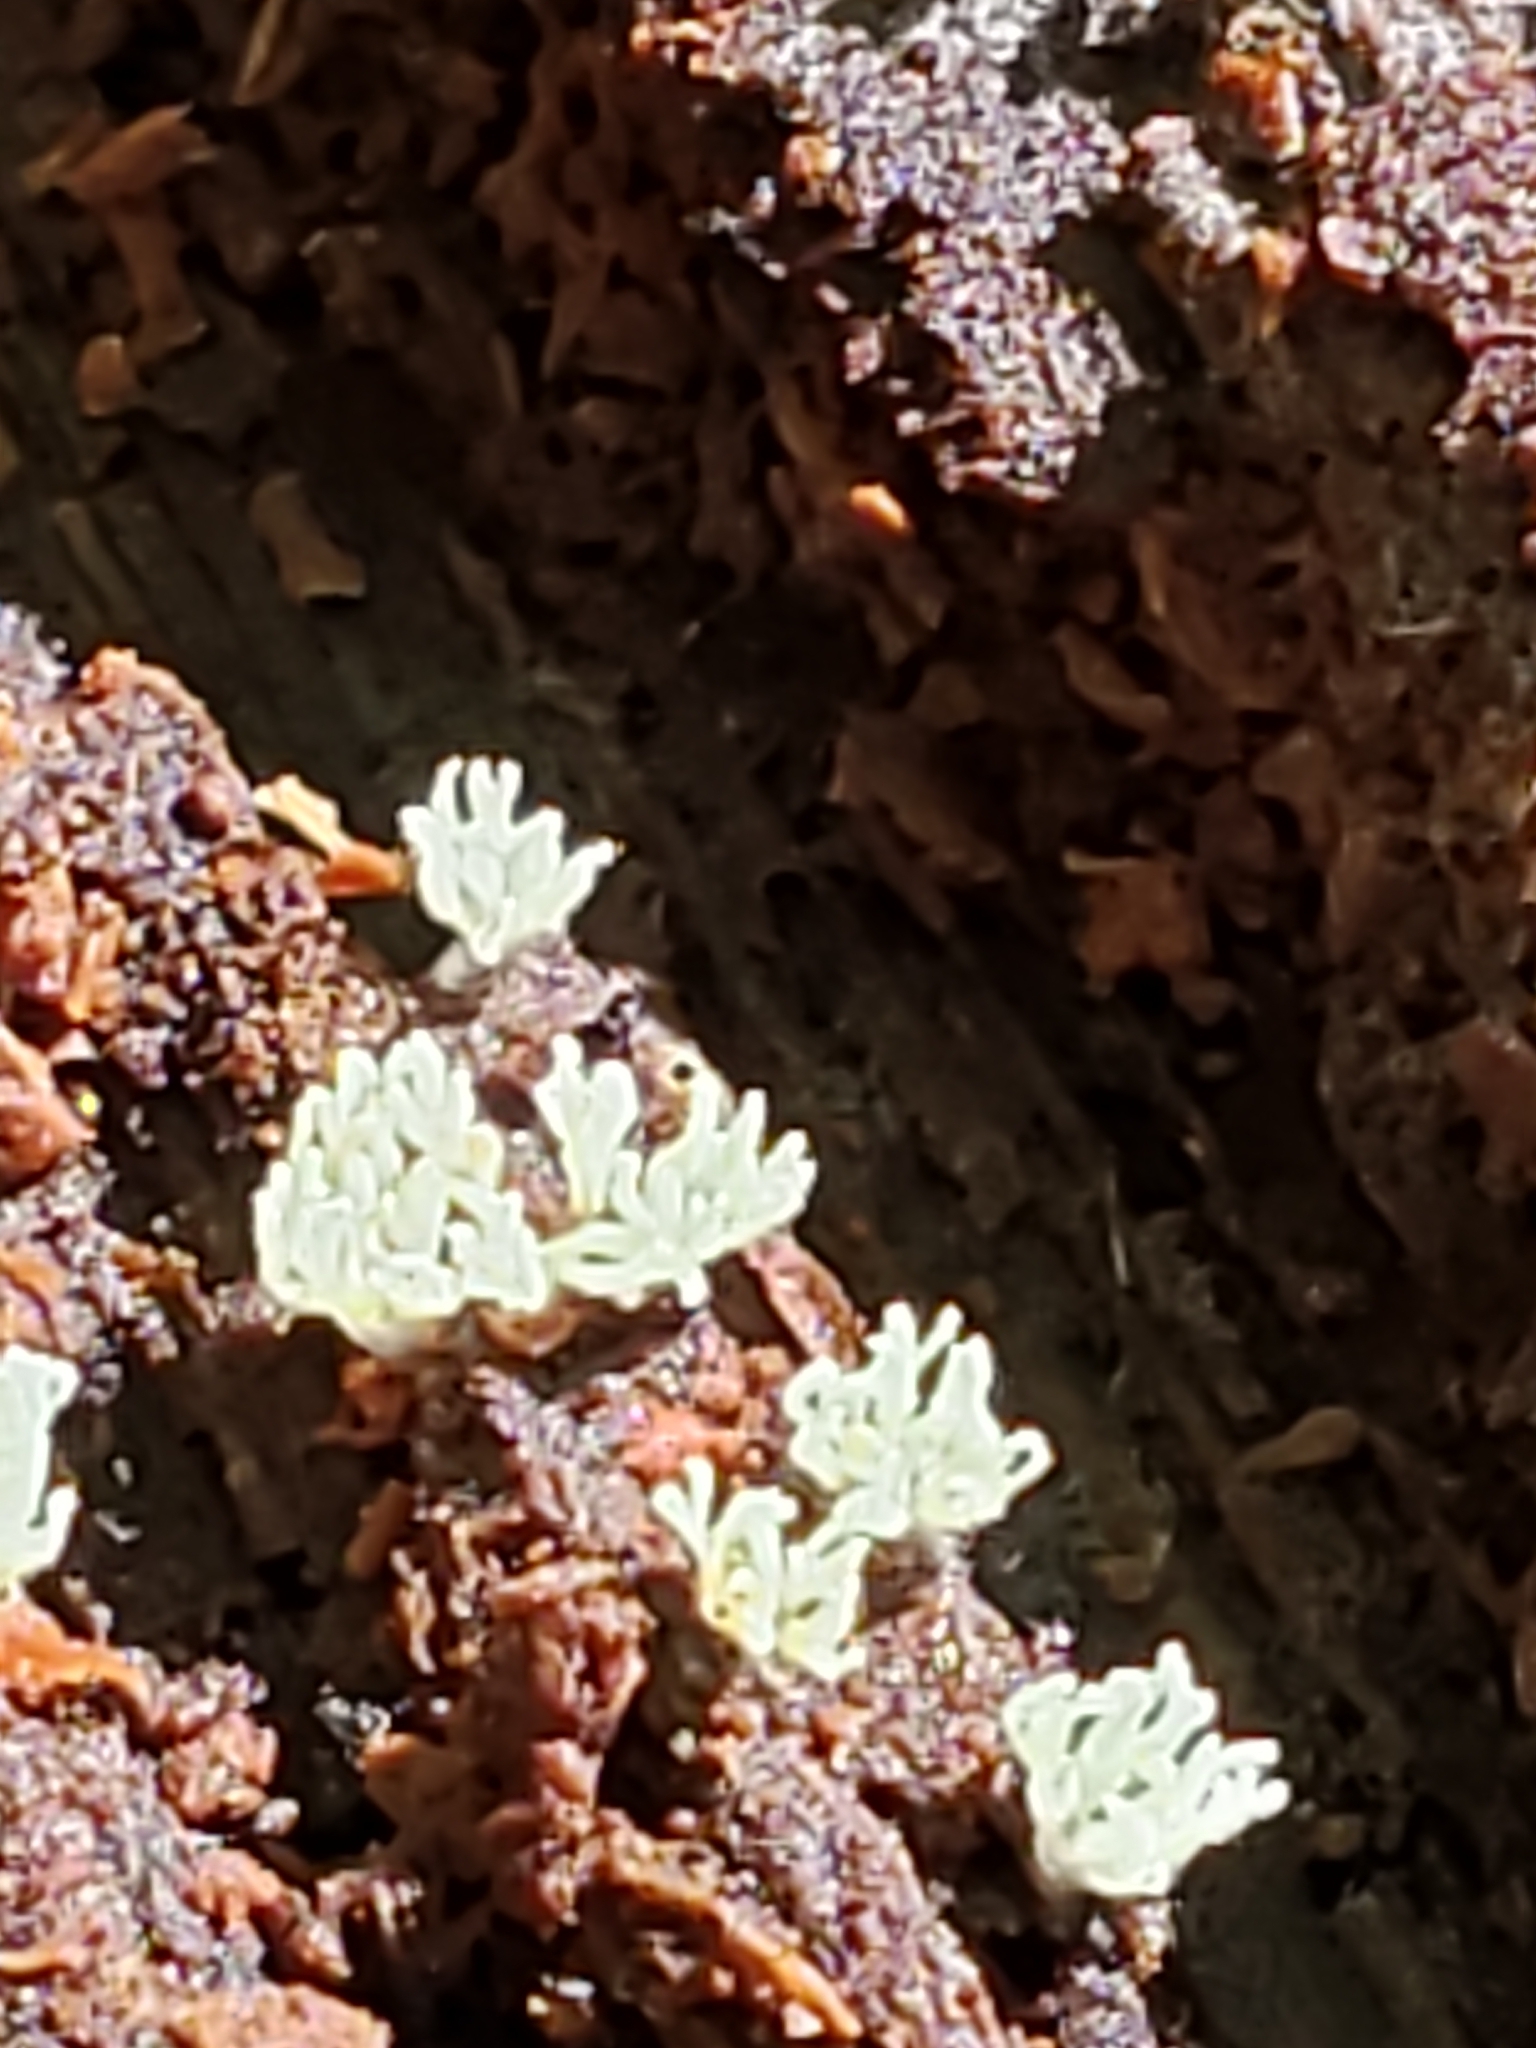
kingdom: Protozoa
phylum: Mycetozoa
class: Protosteliomycetes
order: Ceratiomyxales
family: Ceratiomyxaceae
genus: Ceratiomyxa
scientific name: Ceratiomyxa fruticulosa
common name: Honeycomb coral slime mold
